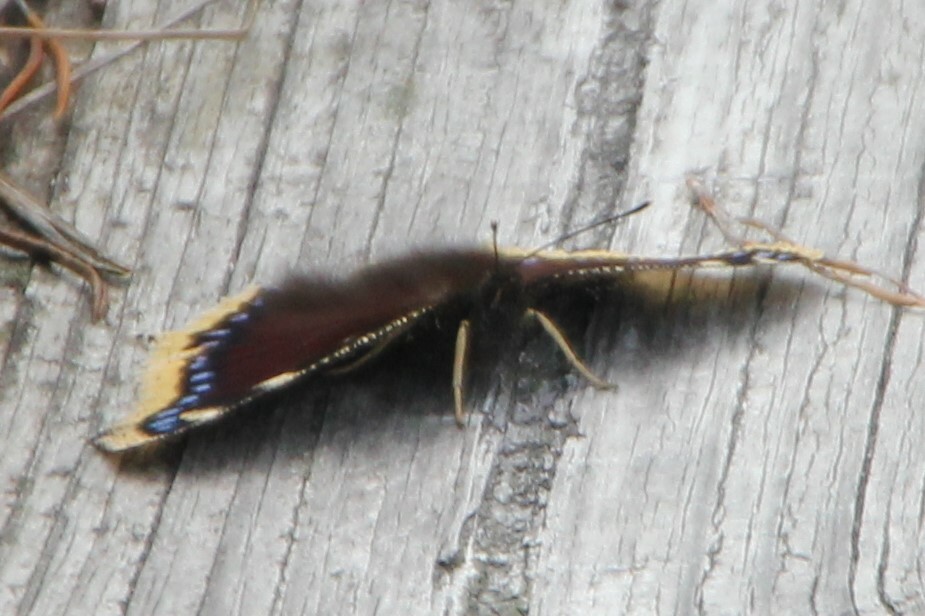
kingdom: Animalia
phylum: Arthropoda
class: Insecta
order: Lepidoptera
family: Nymphalidae
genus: Nymphalis
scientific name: Nymphalis antiopa
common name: Camberwell beauty
